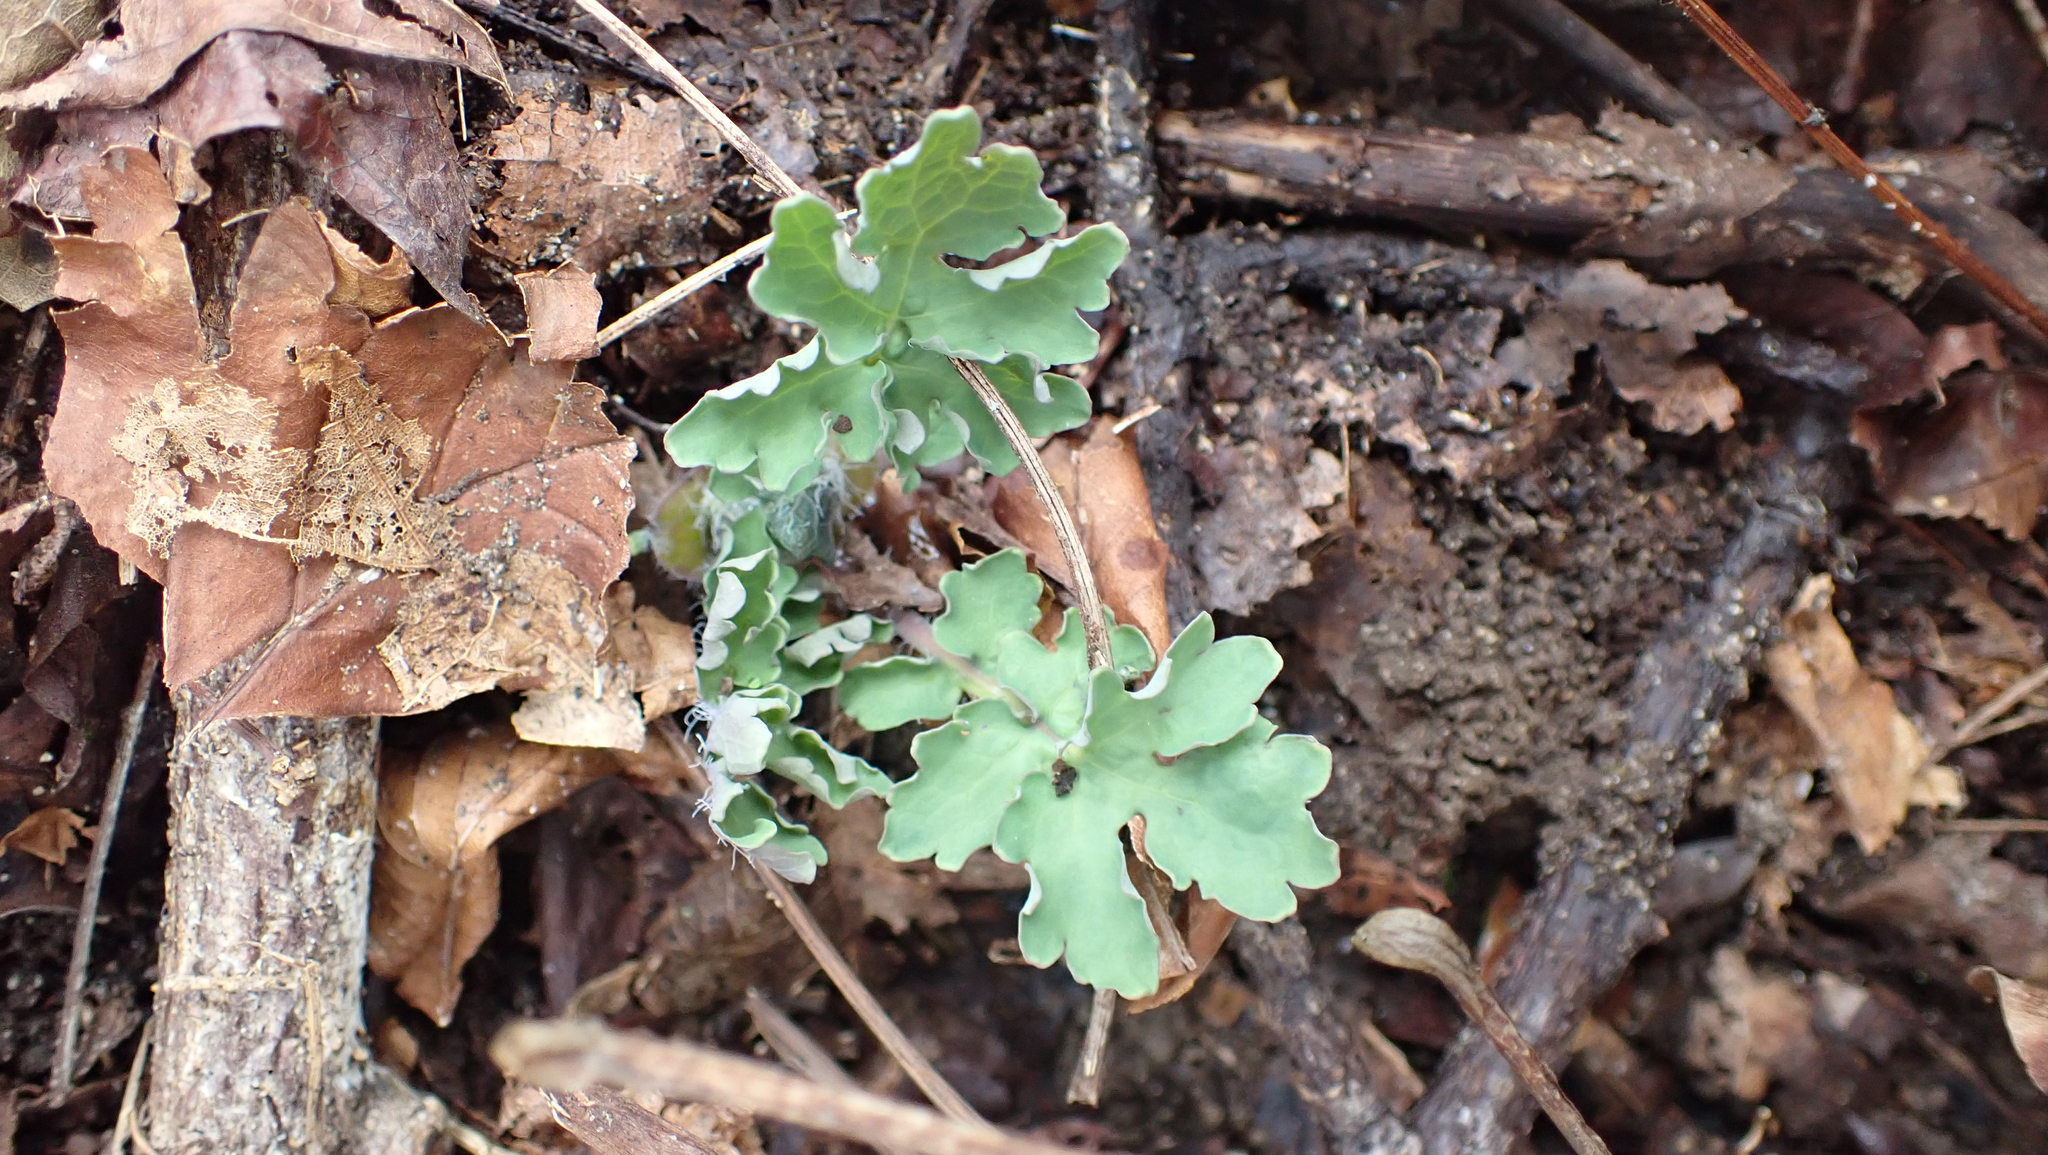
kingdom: Plantae
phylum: Tracheophyta
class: Magnoliopsida
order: Ranunculales
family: Papaveraceae
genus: Stylophorum
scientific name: Stylophorum diphyllum
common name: Celandine poppy
